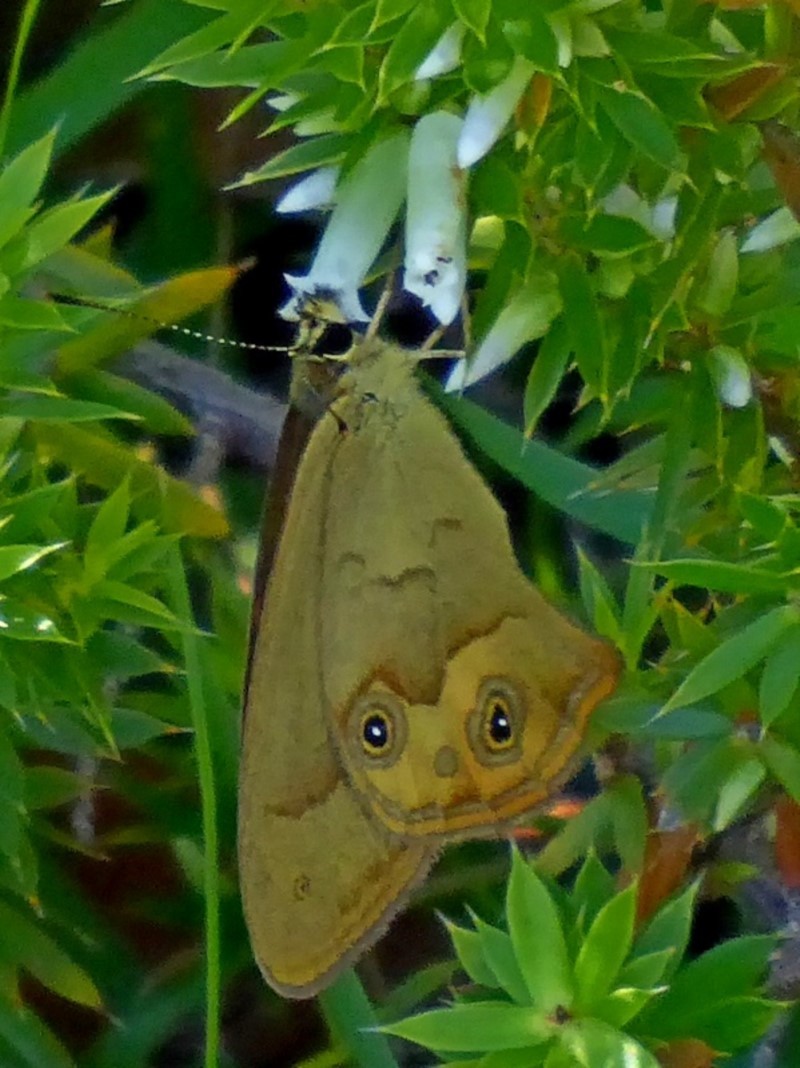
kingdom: Animalia
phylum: Arthropoda
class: Insecta
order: Lepidoptera
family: Nymphalidae
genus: Hypocysta
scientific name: Hypocysta metirius
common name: Brown ringlet
